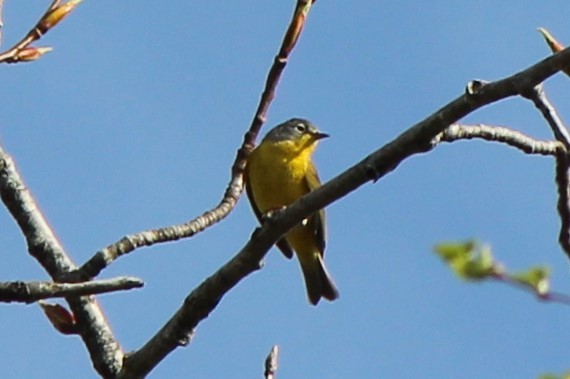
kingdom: Animalia
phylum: Chordata
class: Aves
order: Passeriformes
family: Parulidae
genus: Leiothlypis
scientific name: Leiothlypis ruficapilla
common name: Nashville warbler
